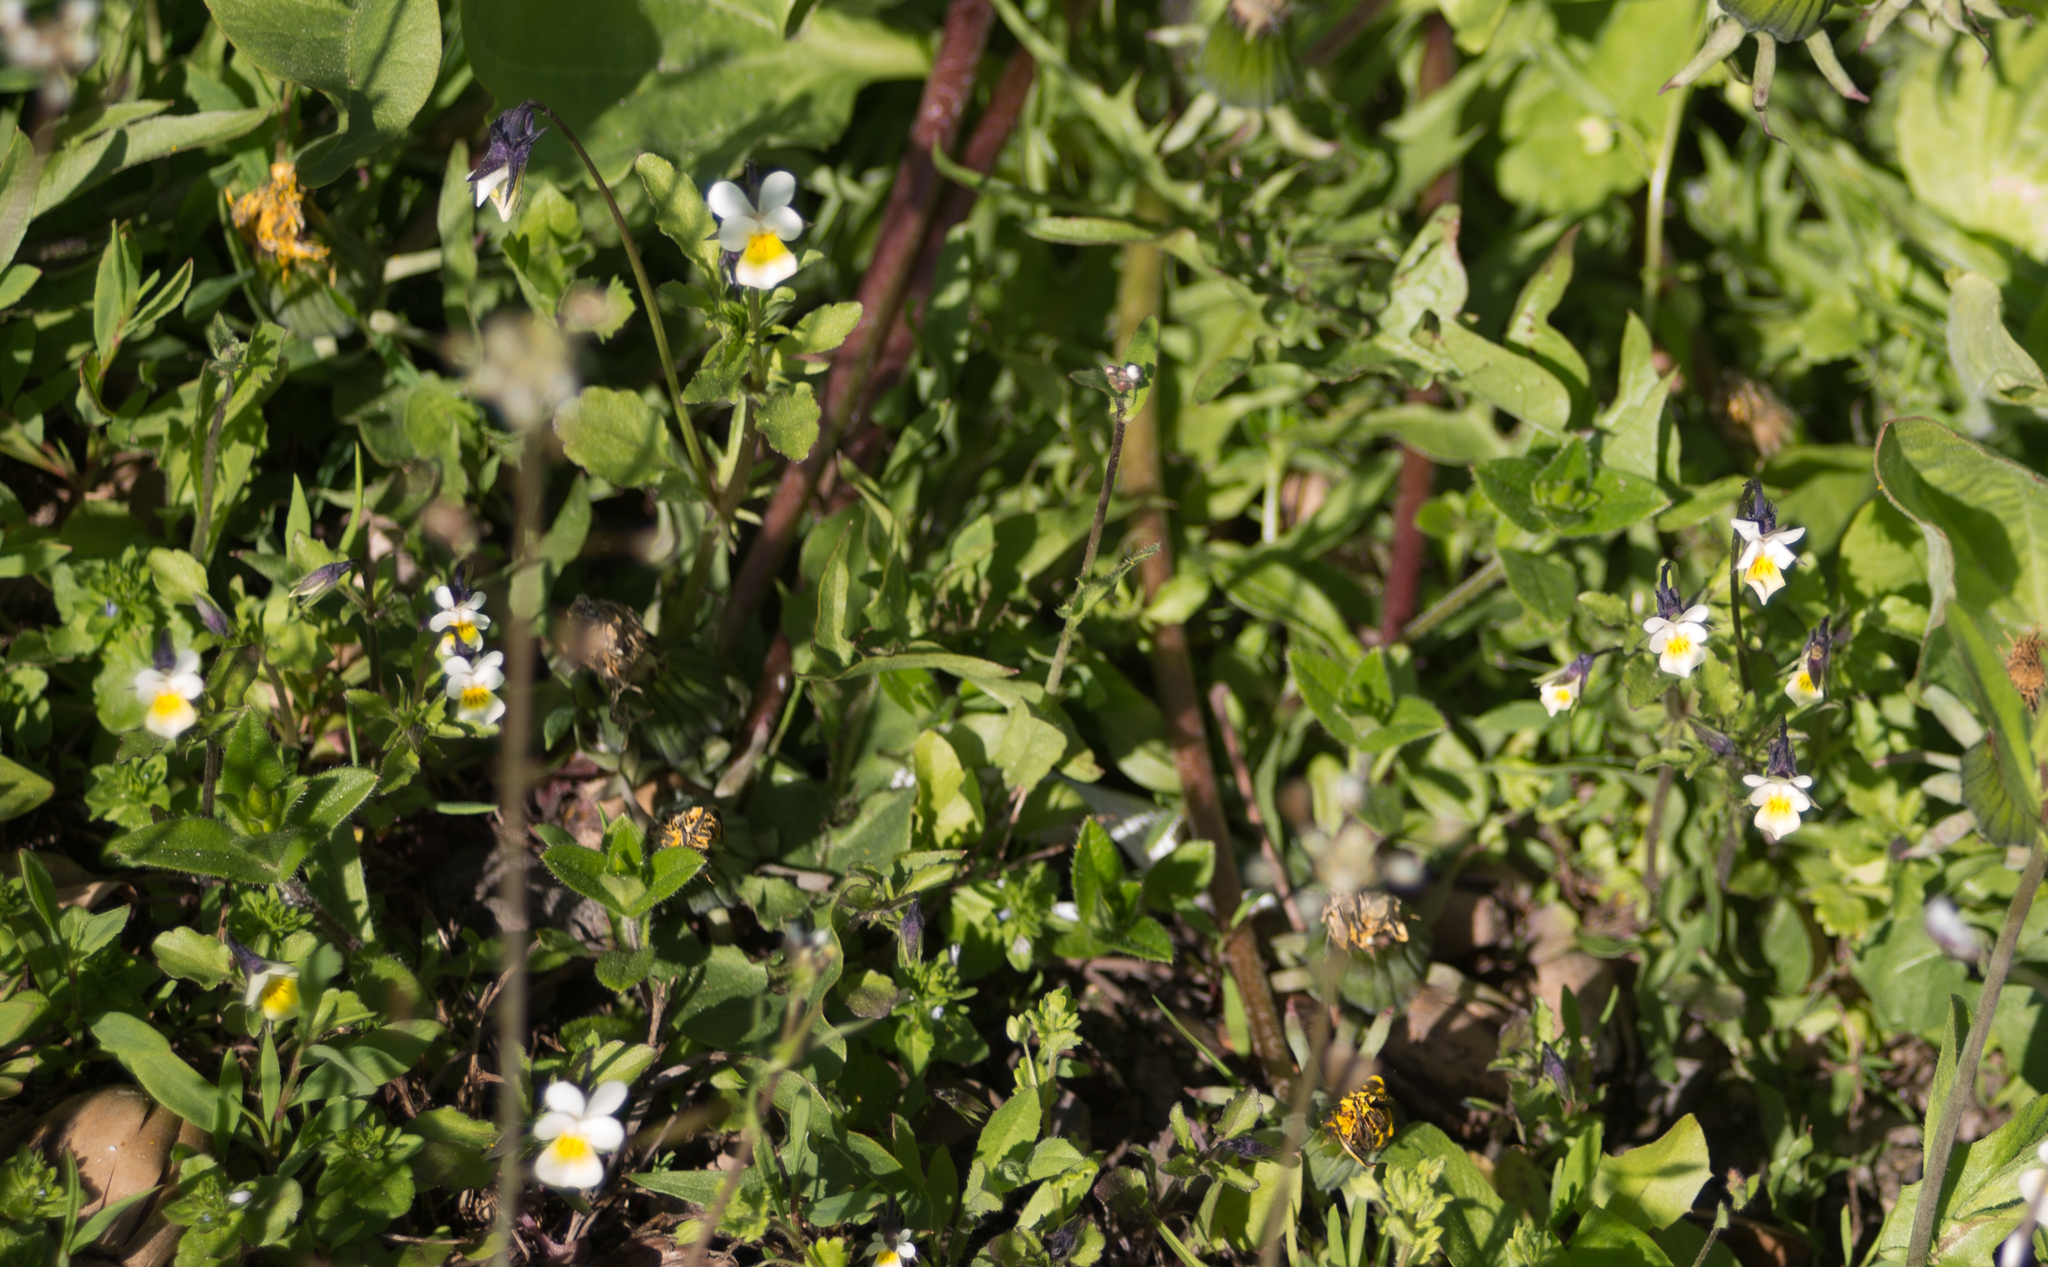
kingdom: Plantae
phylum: Tracheophyta
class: Magnoliopsida
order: Malpighiales
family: Violaceae
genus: Viola
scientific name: Viola arvensis
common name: Field pansy
